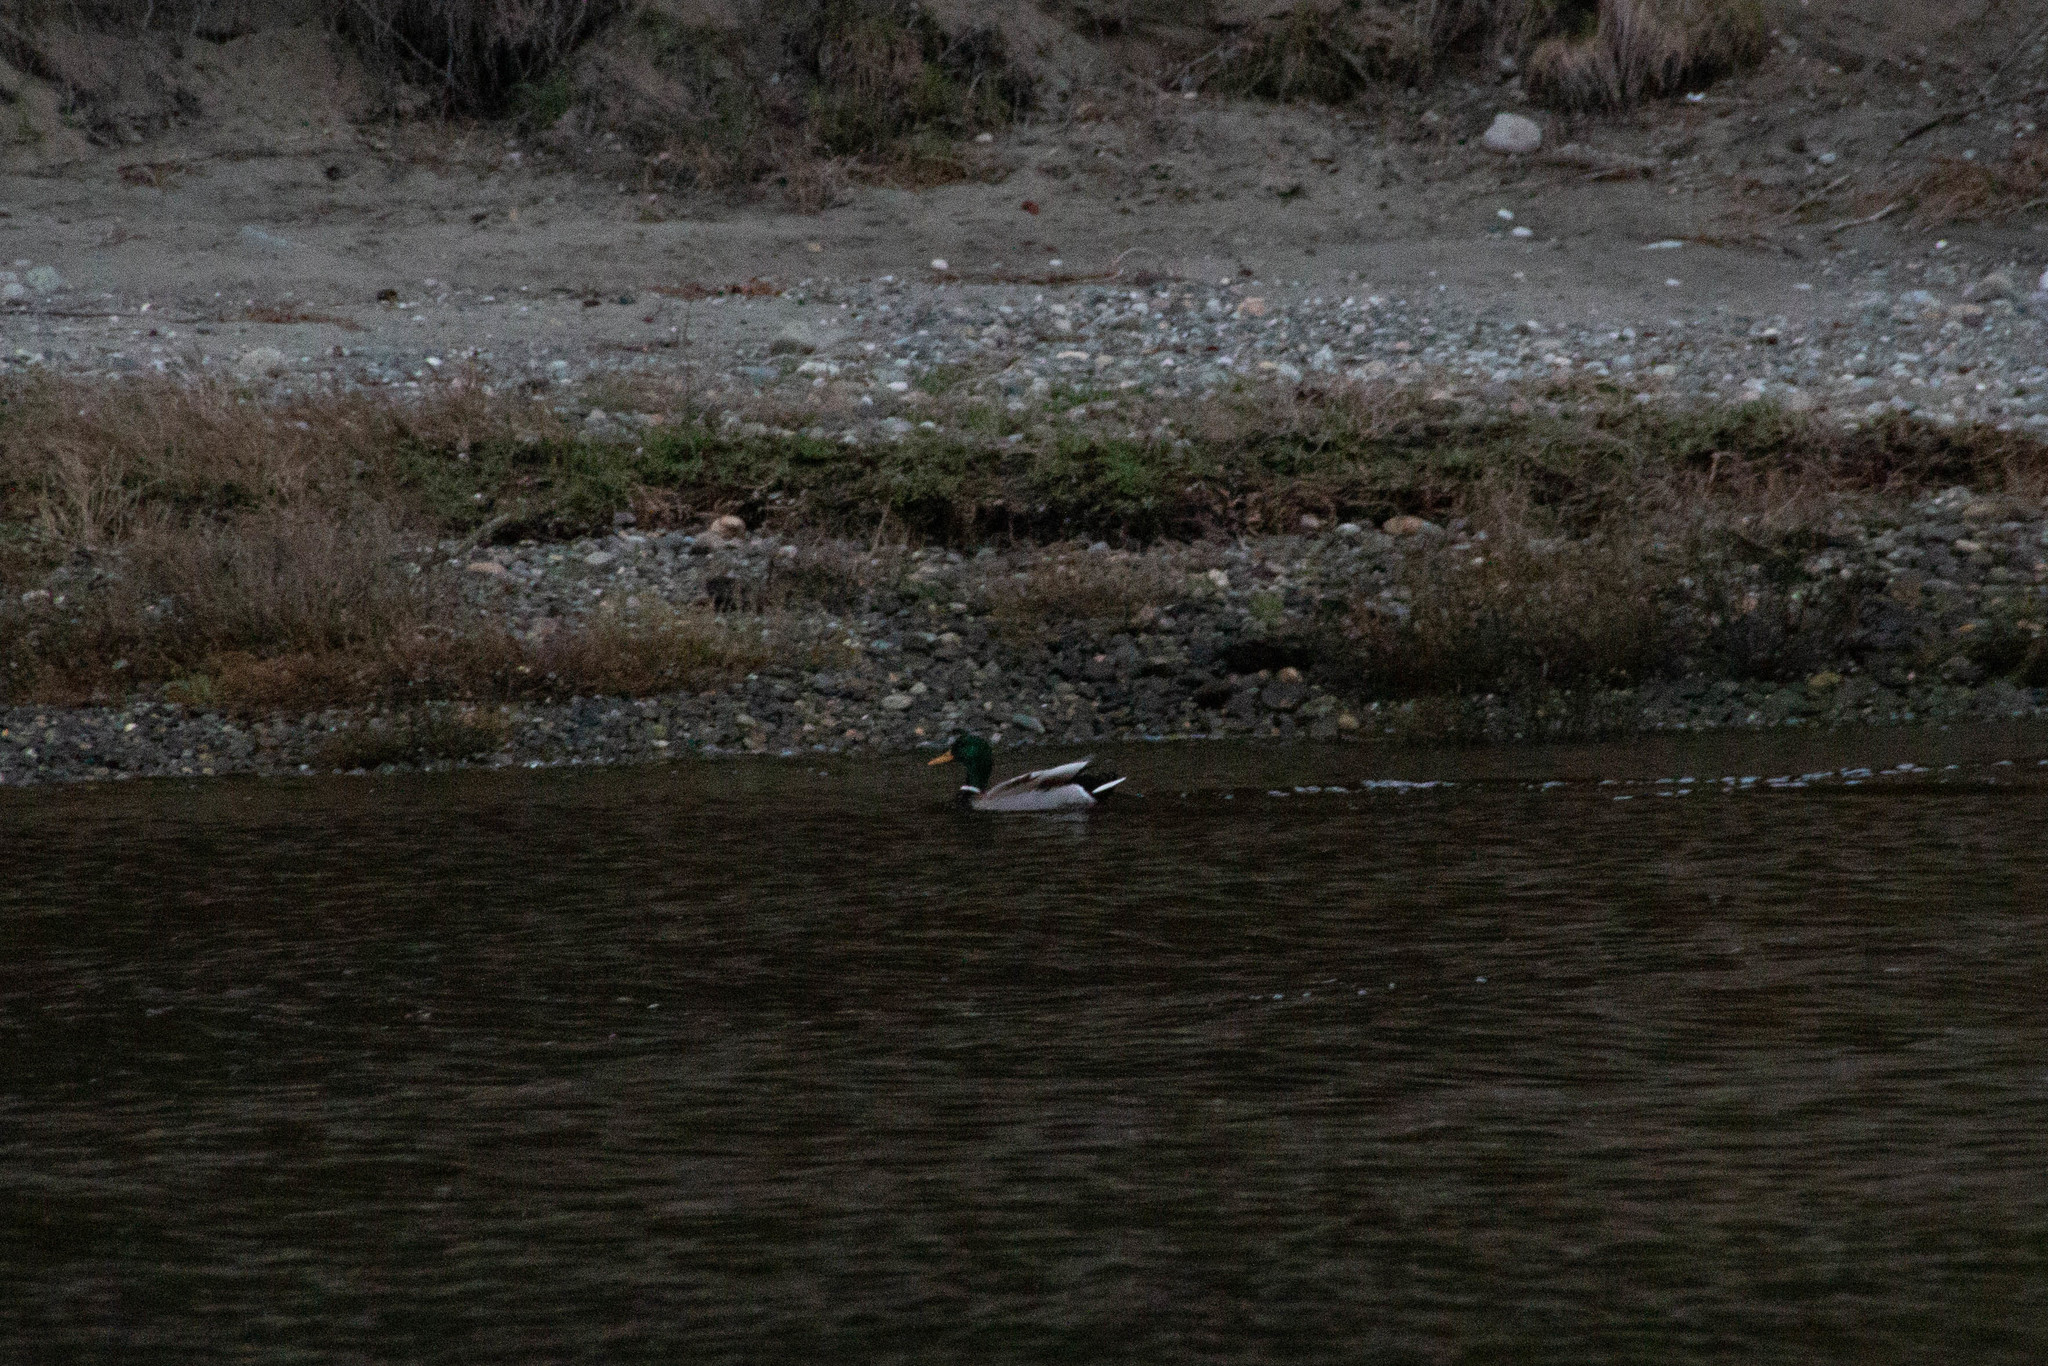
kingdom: Animalia
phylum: Chordata
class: Aves
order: Anseriformes
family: Anatidae
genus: Anas
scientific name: Anas platyrhynchos
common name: Mallard
